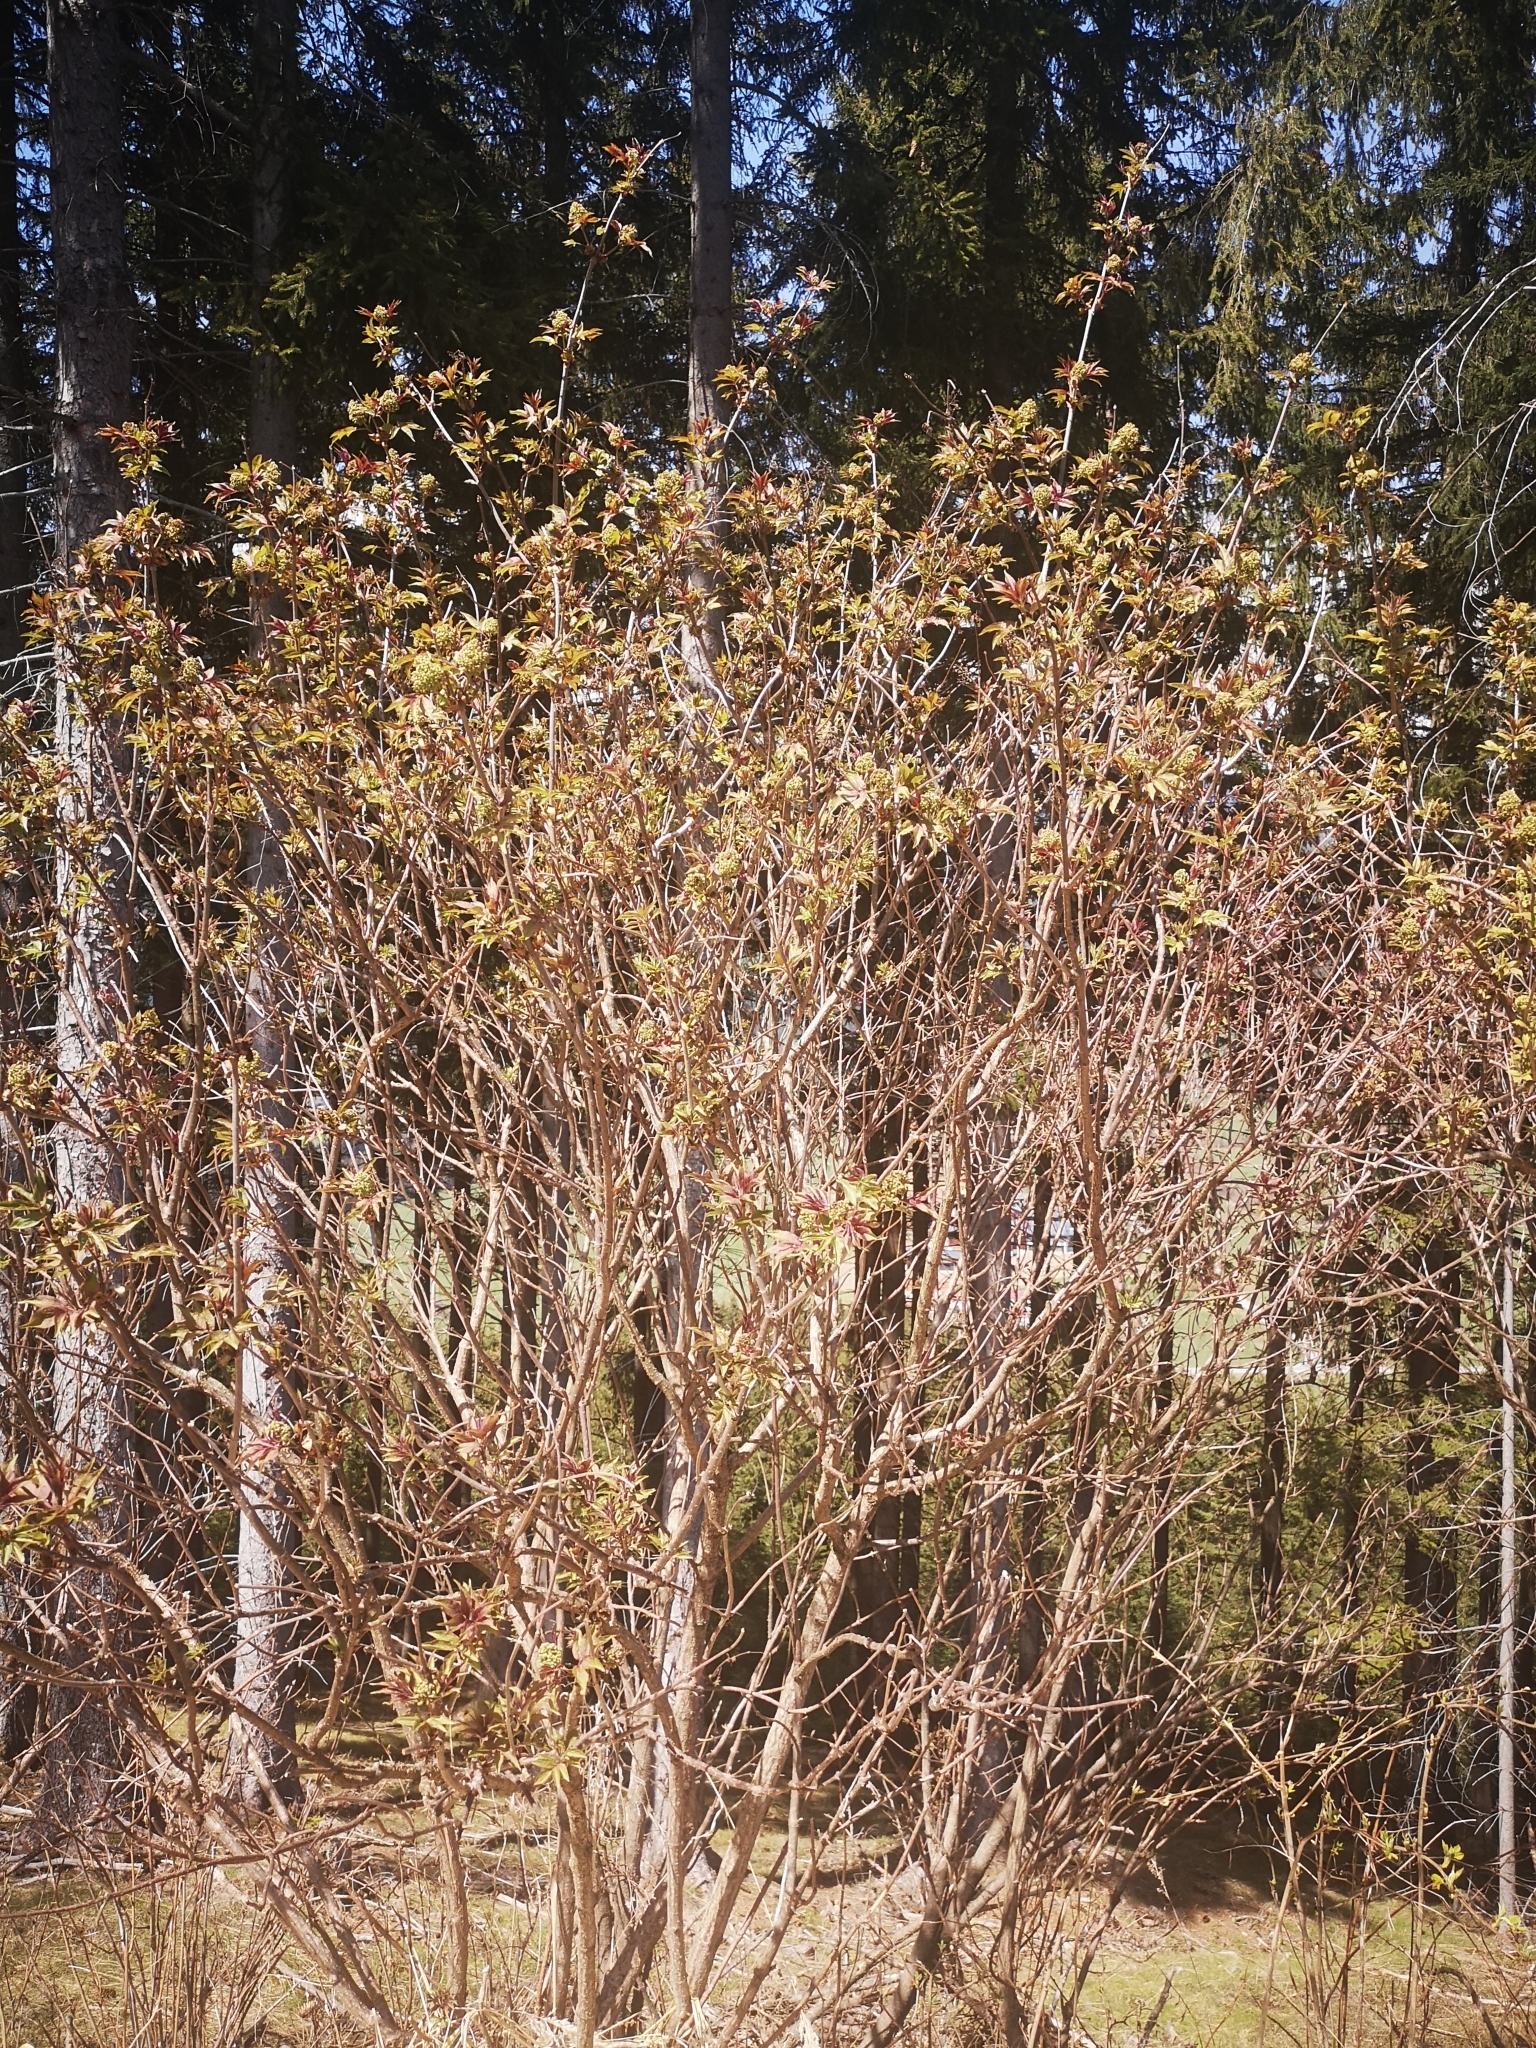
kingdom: Plantae
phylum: Tracheophyta
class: Magnoliopsida
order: Dipsacales
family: Viburnaceae
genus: Sambucus
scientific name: Sambucus racemosa
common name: Red-berried elder
